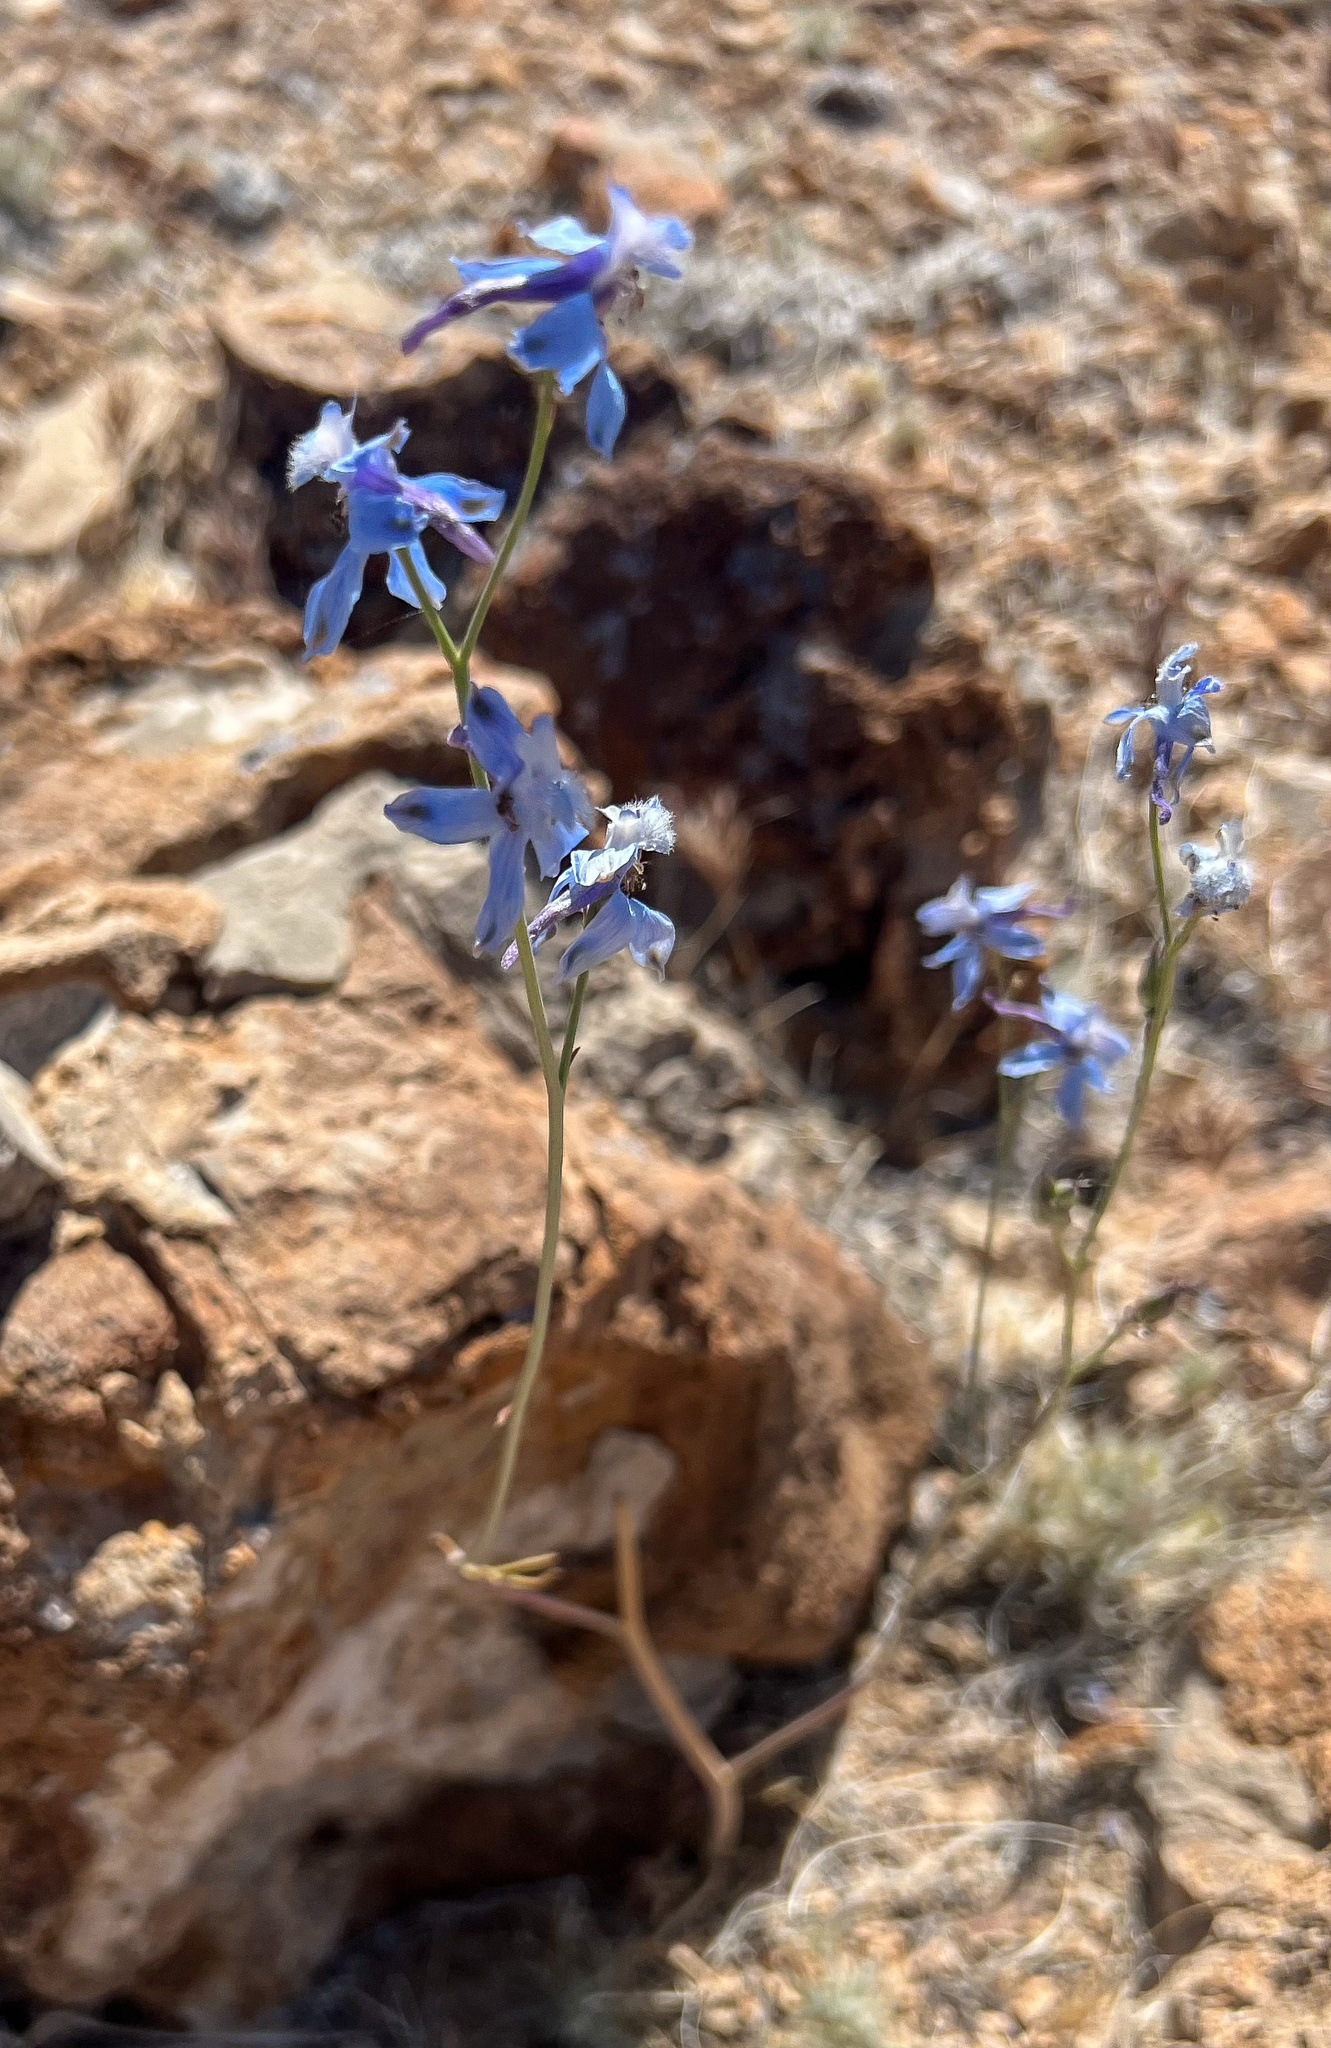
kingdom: Plantae
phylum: Tracheophyta
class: Magnoliopsida
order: Ranunculales
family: Ranunculaceae
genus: Delphinium
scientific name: Delphinium parishii
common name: Apache larkspur
